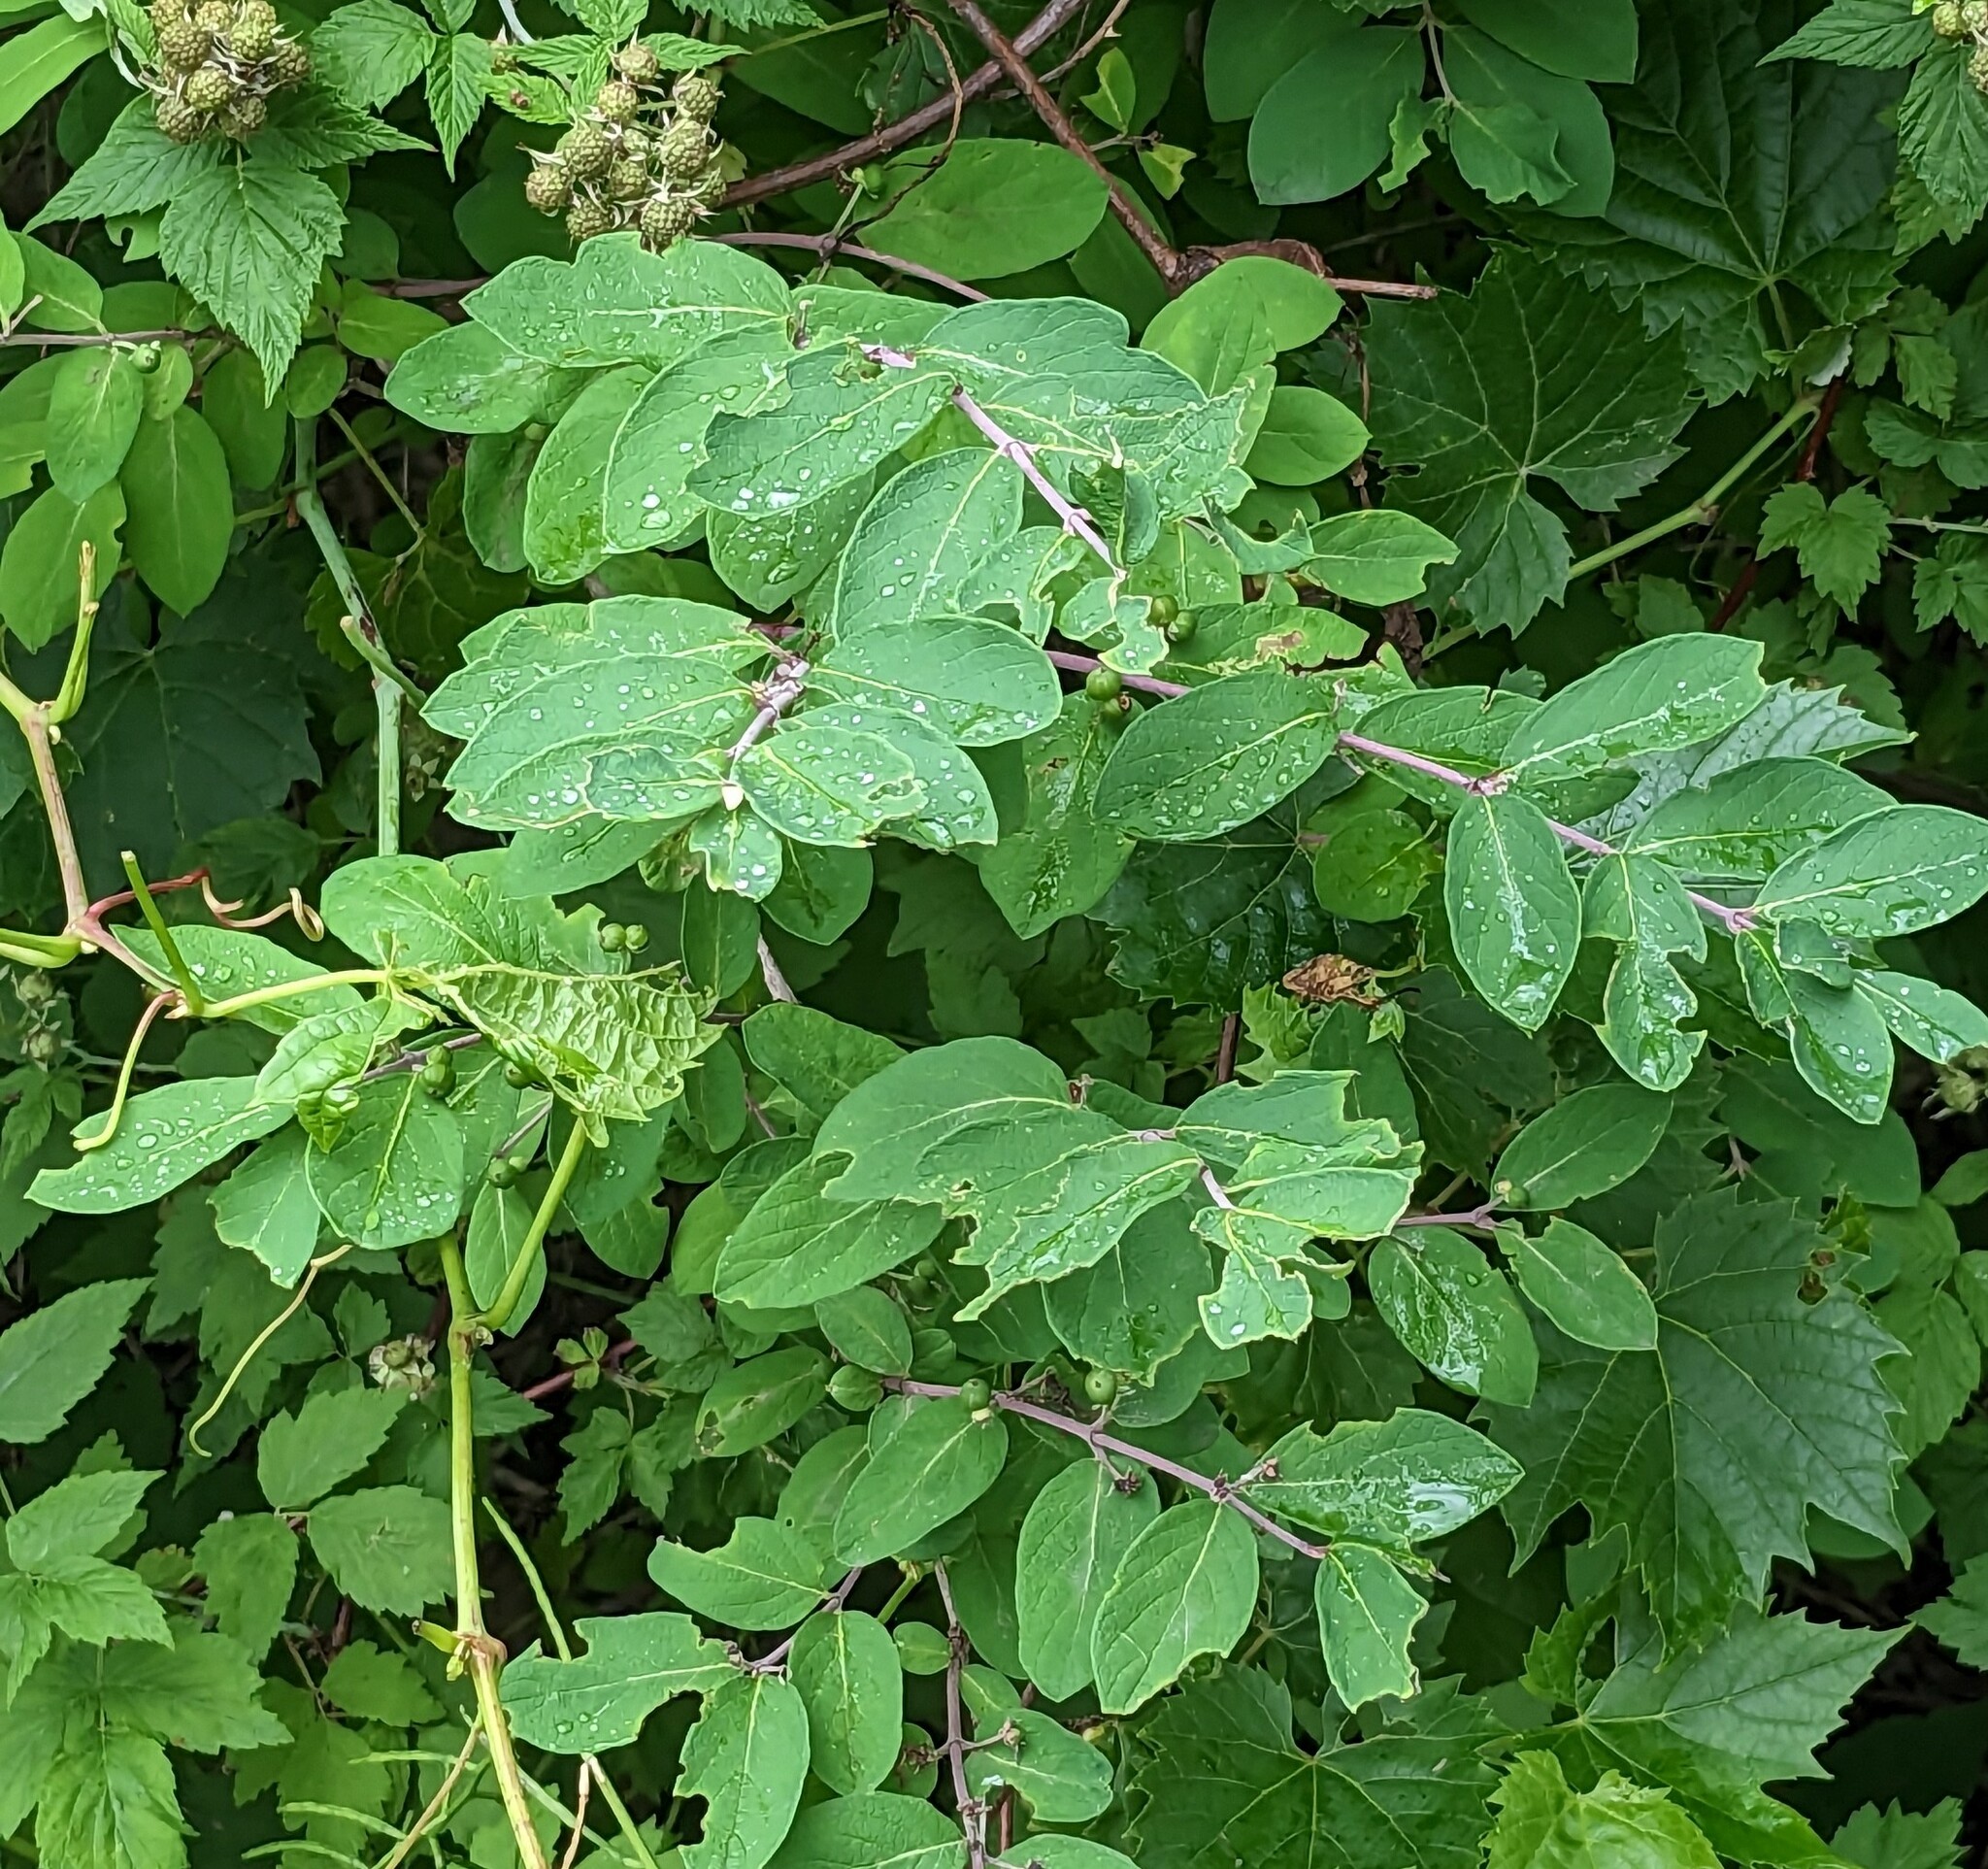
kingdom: Plantae
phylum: Tracheophyta
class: Magnoliopsida
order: Dipsacales
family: Caprifoliaceae
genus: Lonicera
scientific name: Lonicera
